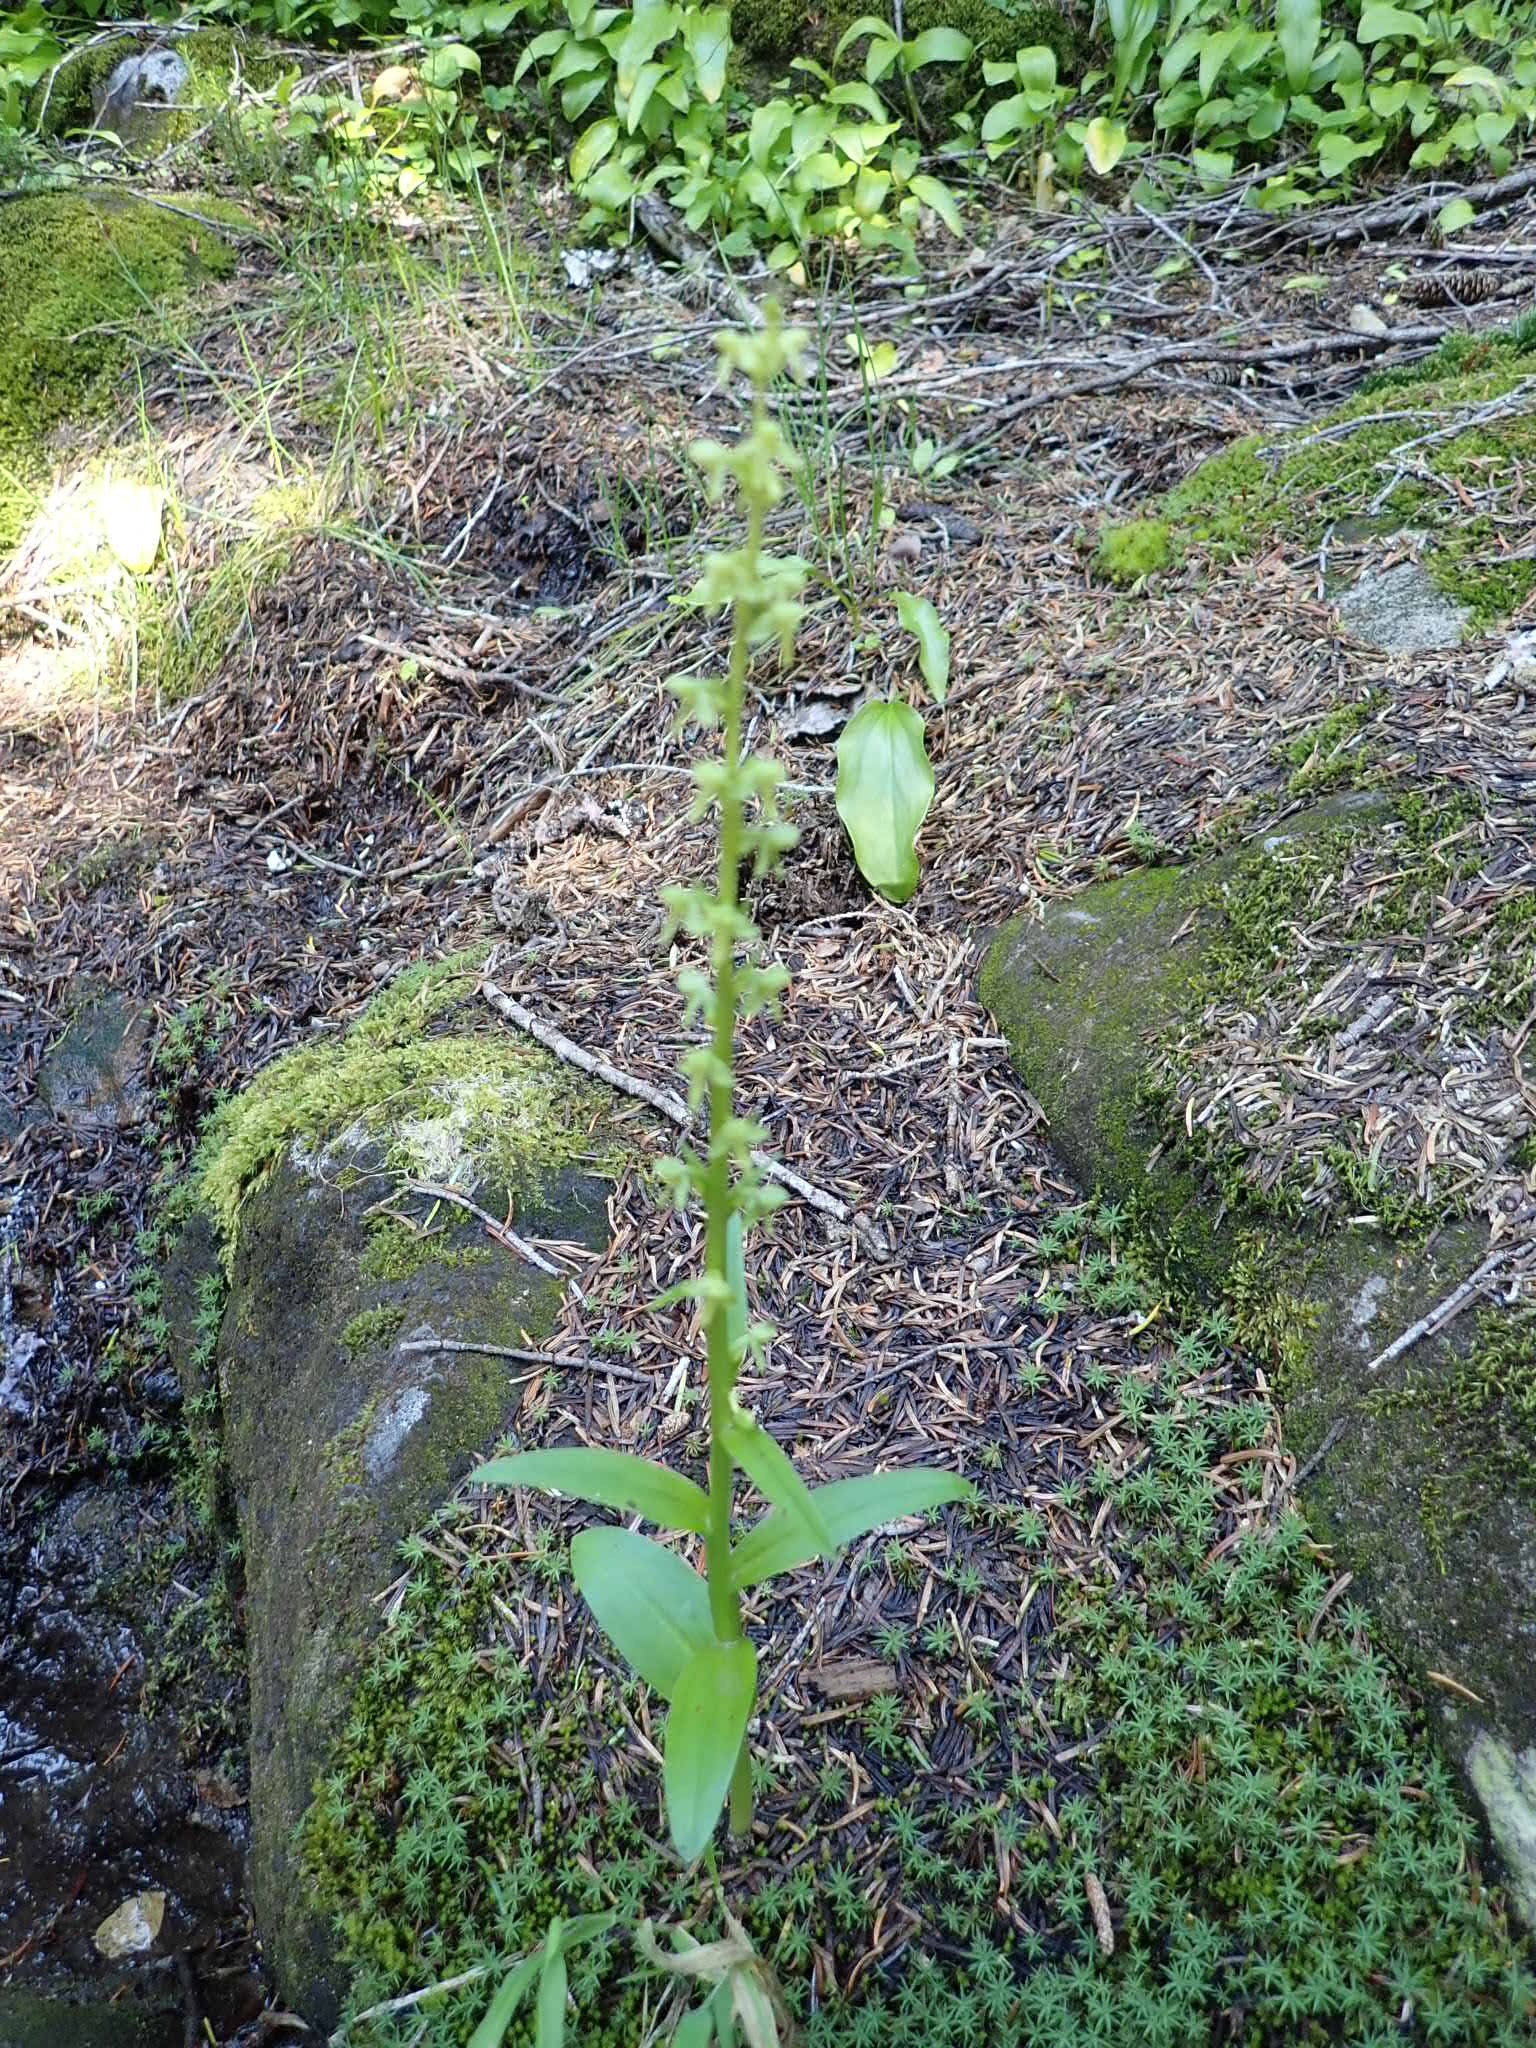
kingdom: Plantae
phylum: Tracheophyta
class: Liliopsida
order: Asparagales
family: Orchidaceae
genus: Platanthera
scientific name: Platanthera stricta
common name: Slender bog orchid
